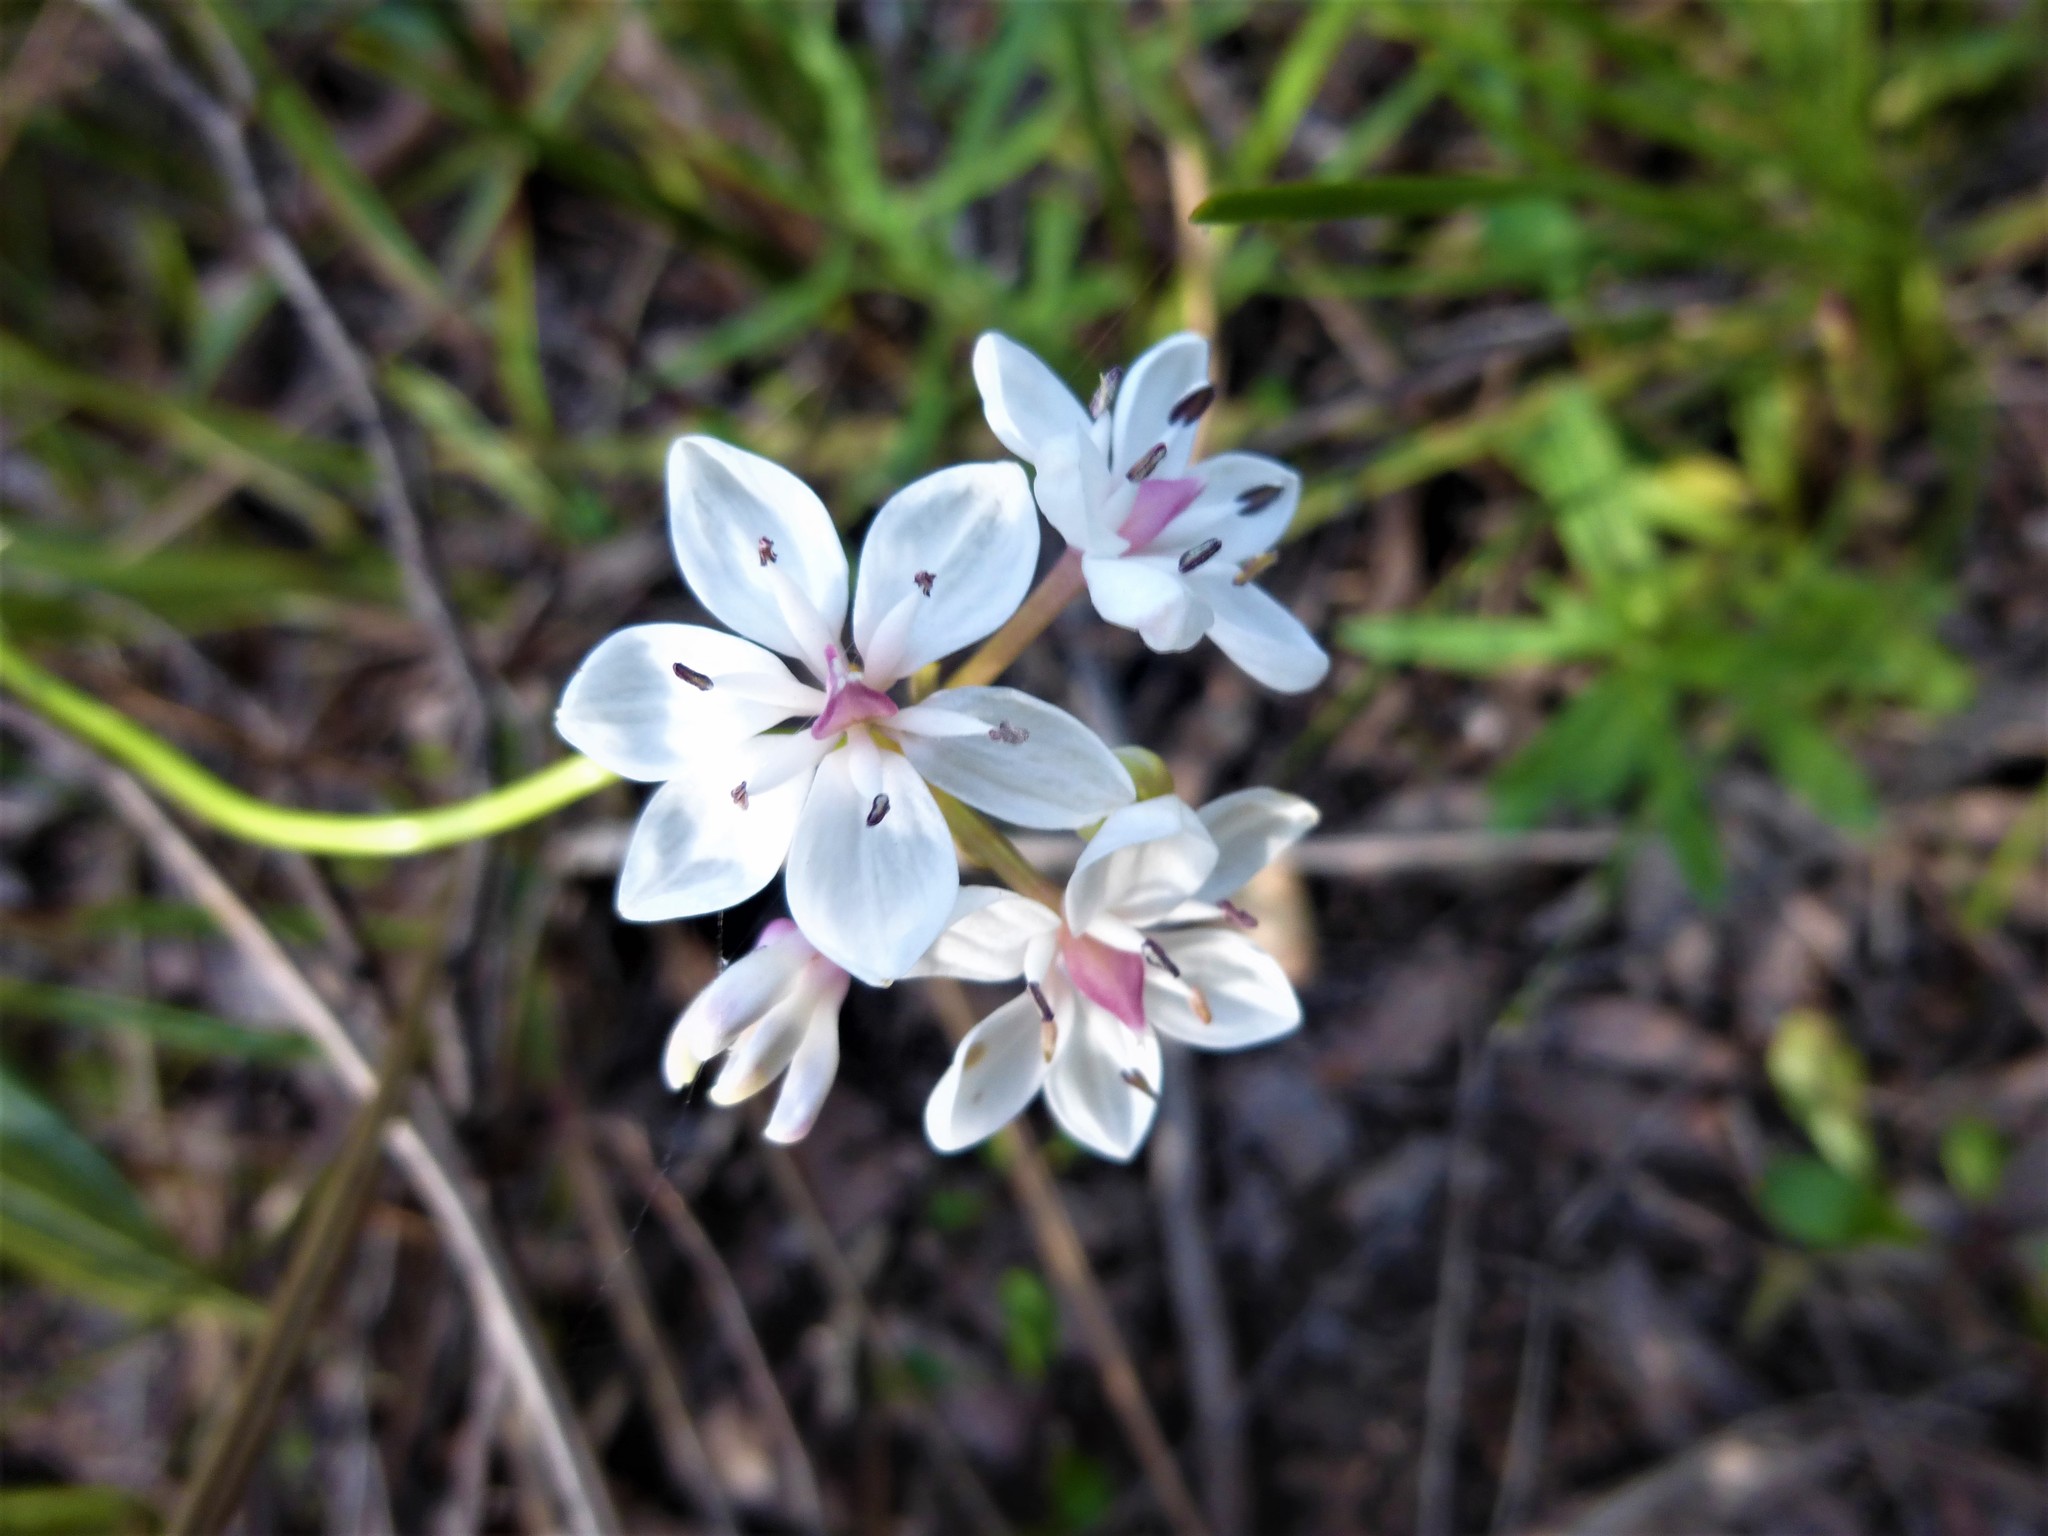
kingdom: Plantae
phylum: Tracheophyta
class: Liliopsida
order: Liliales
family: Colchicaceae
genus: Burchardia
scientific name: Burchardia umbellata
